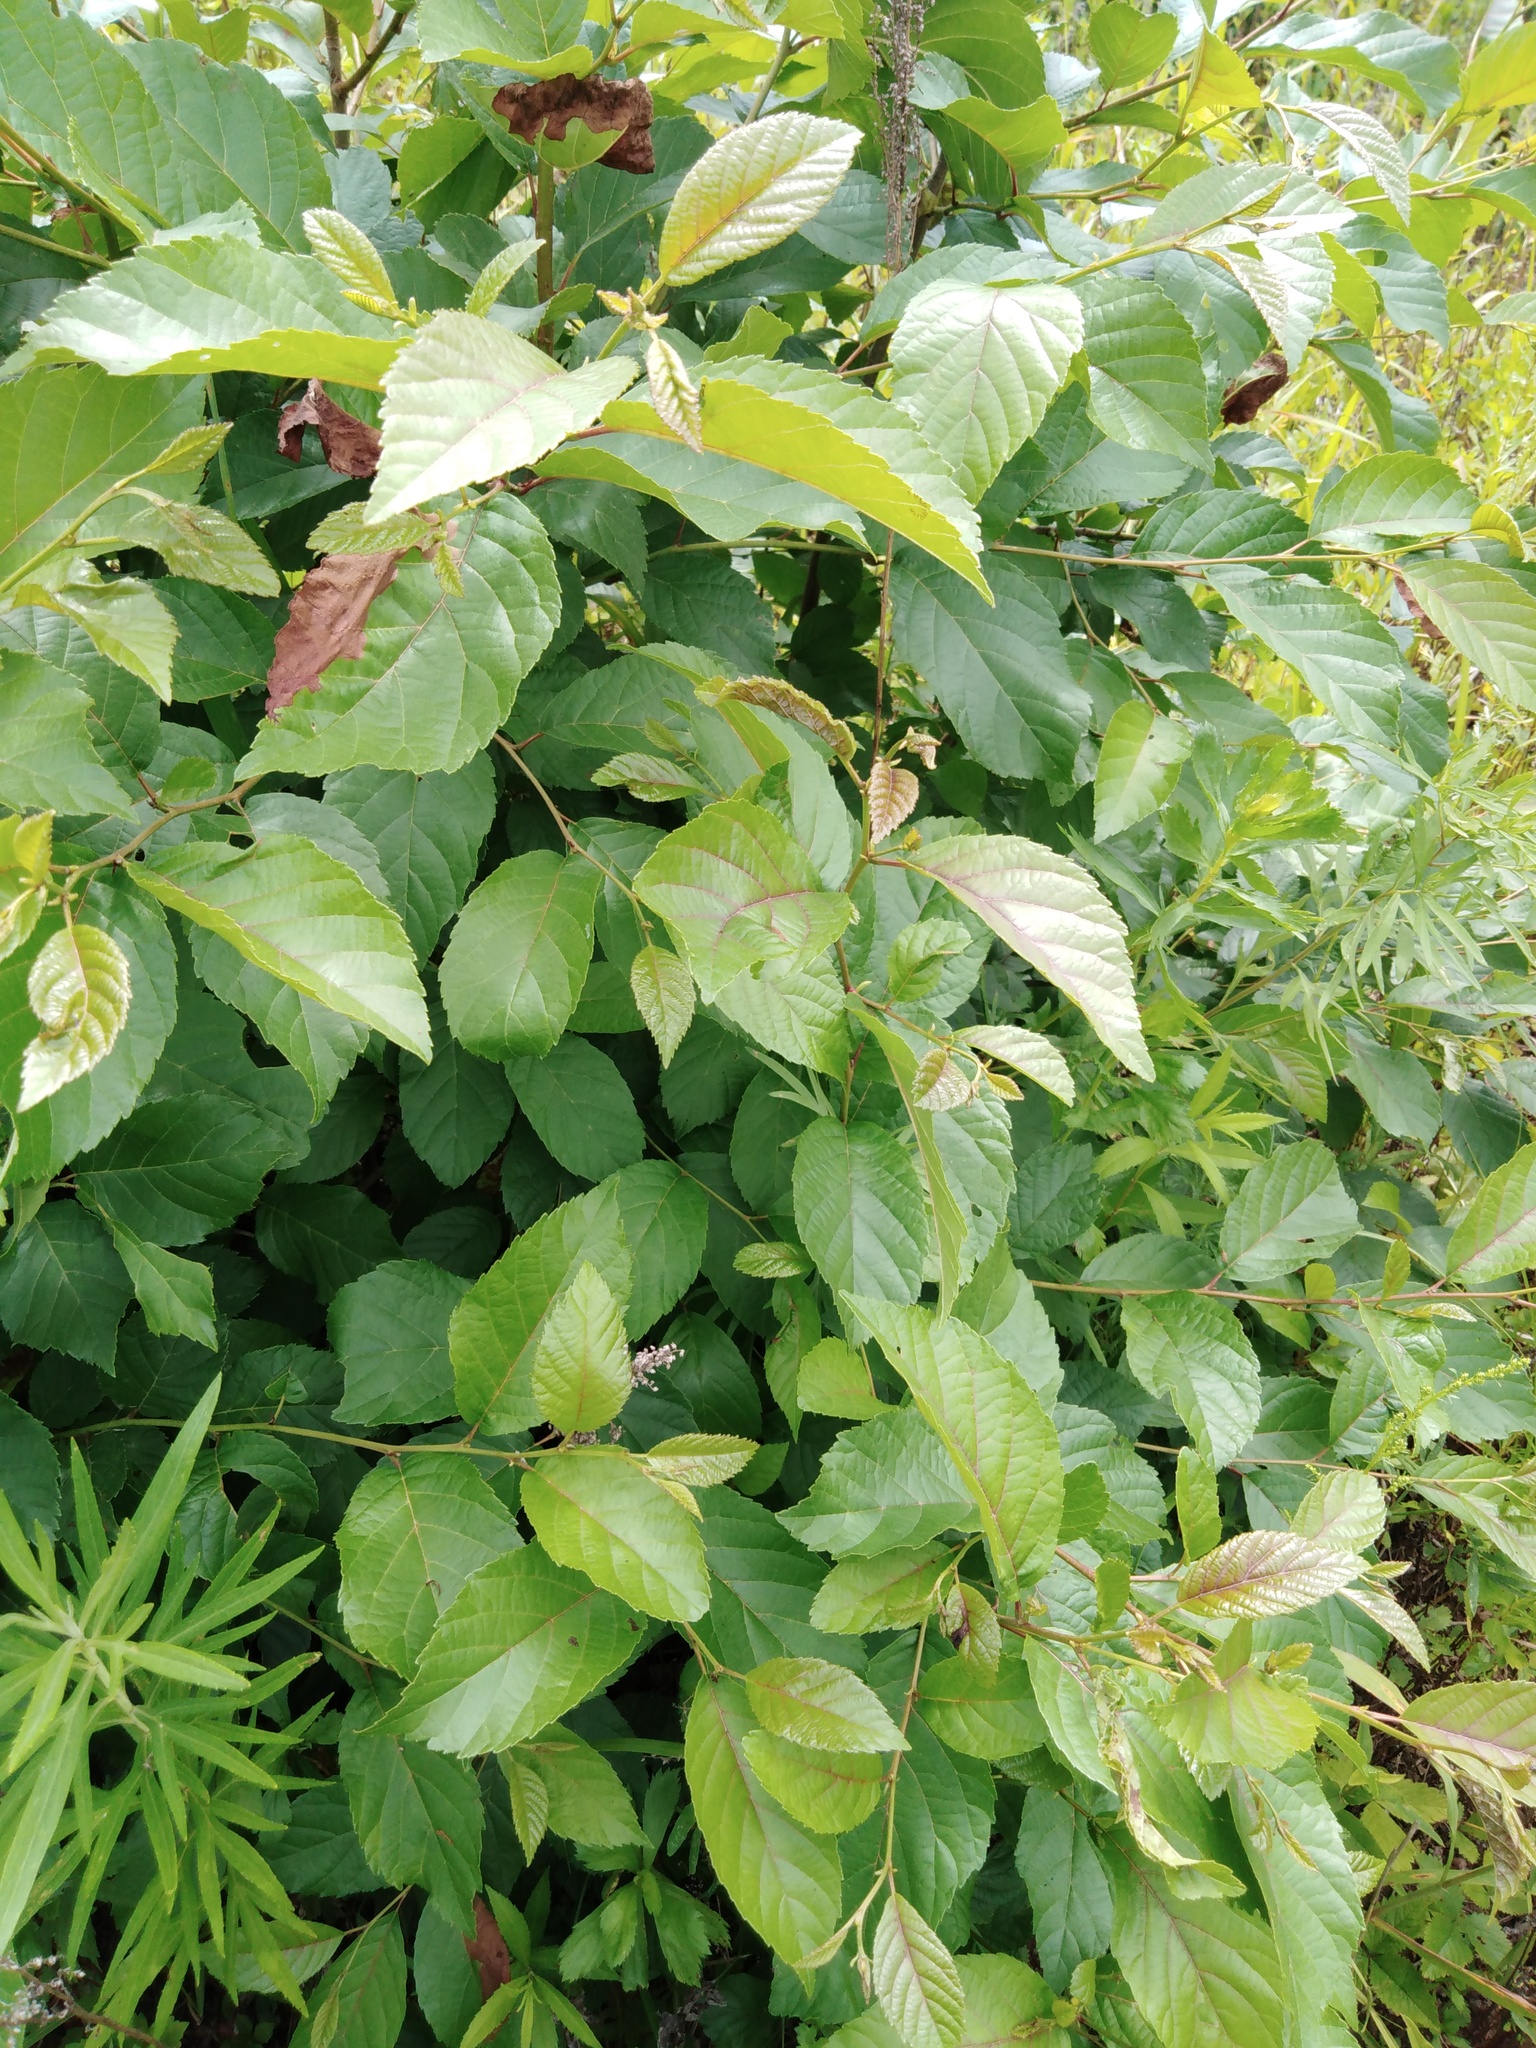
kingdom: Plantae
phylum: Tracheophyta
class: Magnoliopsida
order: Fagales
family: Betulaceae
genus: Alnus
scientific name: Alnus japonica
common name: Japanese alder
